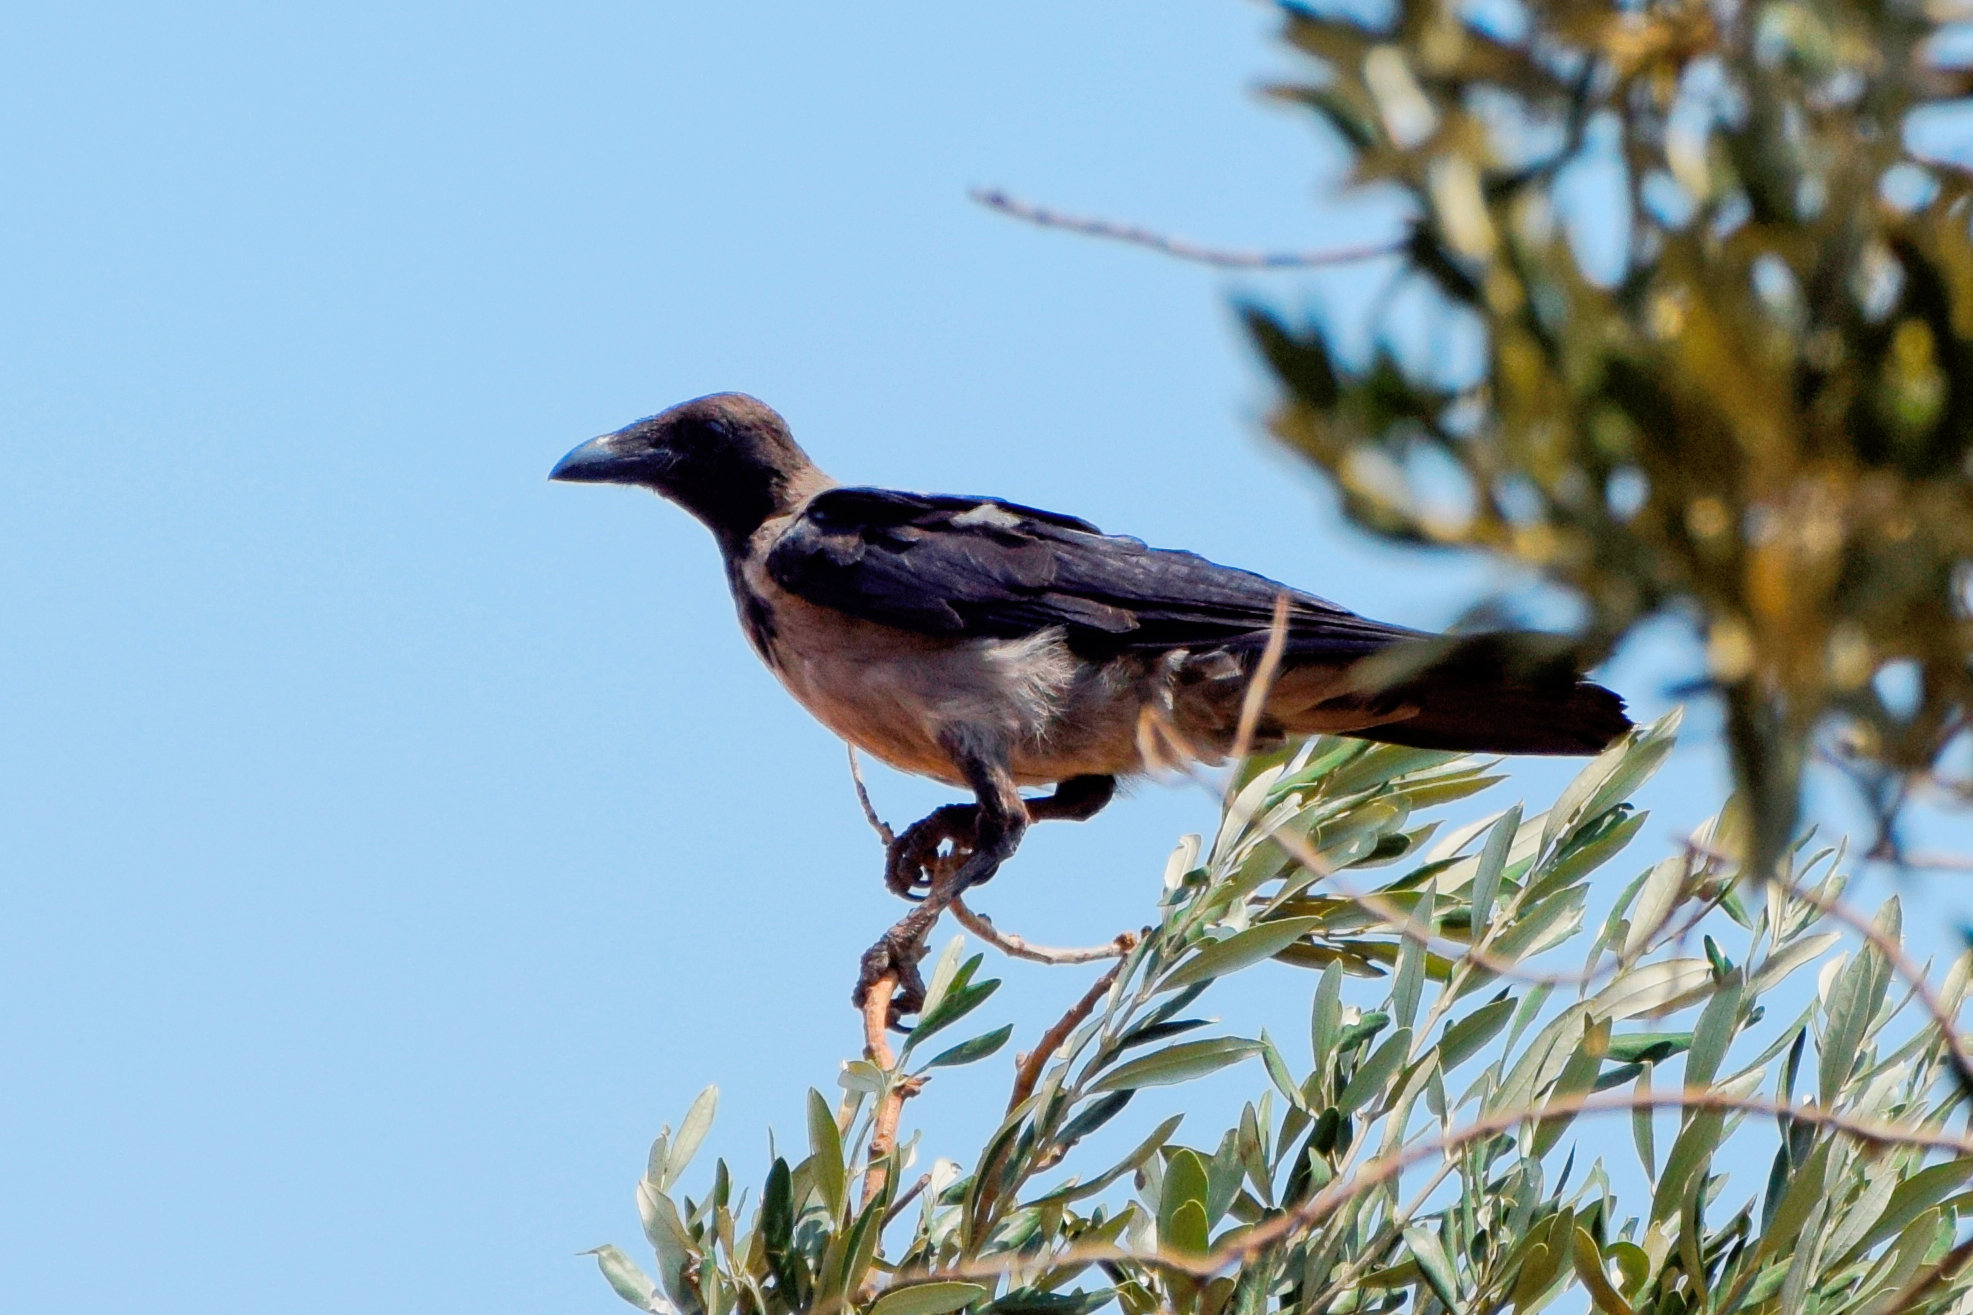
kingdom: Animalia
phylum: Chordata
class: Aves
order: Passeriformes
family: Corvidae
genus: Corvus
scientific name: Corvus cornix
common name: Hooded crow
